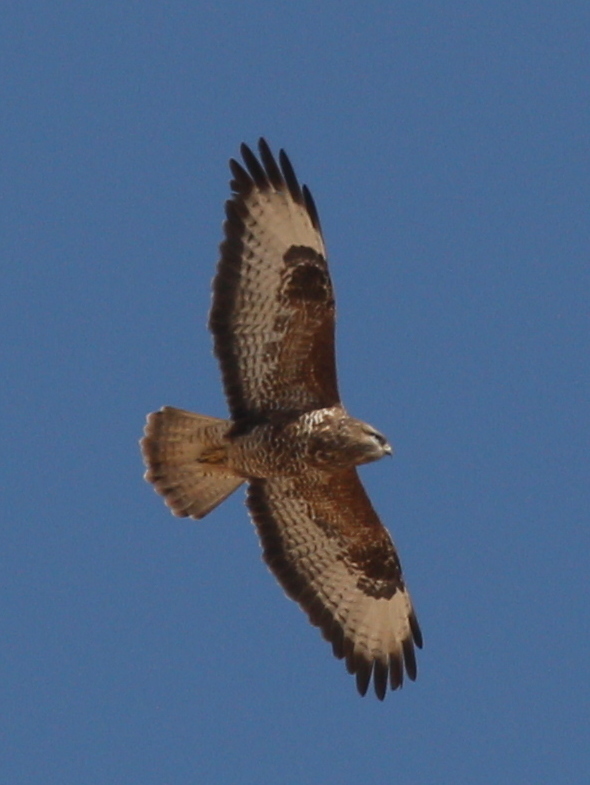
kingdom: Animalia
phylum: Chordata
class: Aves
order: Accipitriformes
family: Accipitridae
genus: Buteo
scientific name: Buteo buteo
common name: Common buzzard
